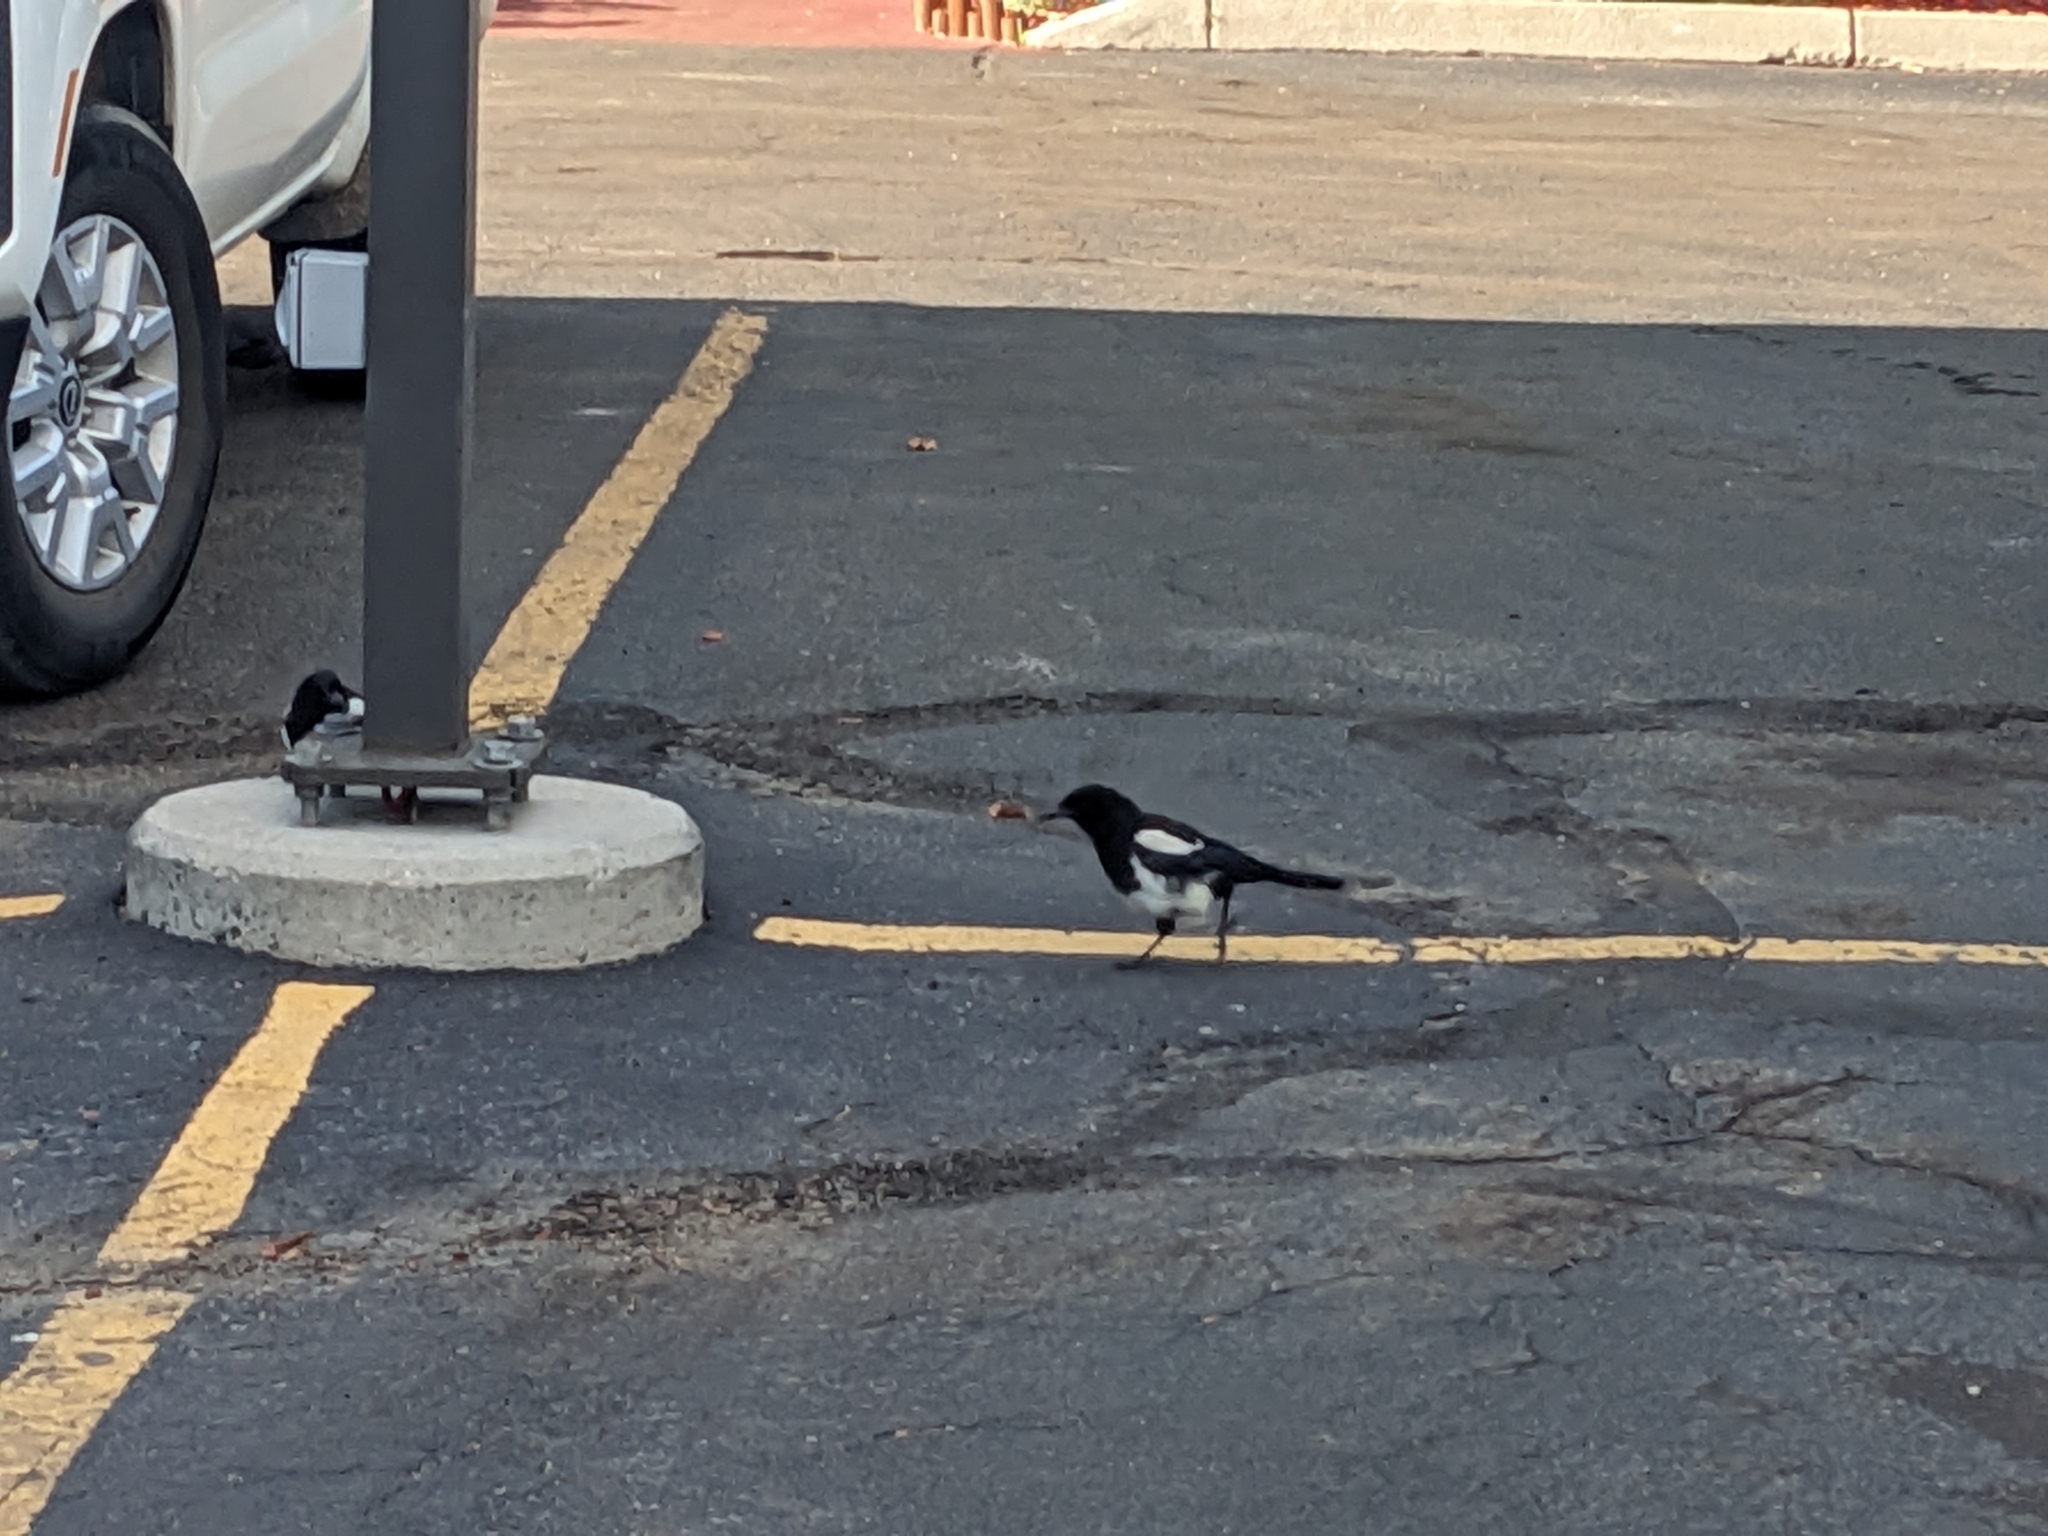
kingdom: Animalia
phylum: Chordata
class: Aves
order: Passeriformes
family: Corvidae
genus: Pica
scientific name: Pica hudsonia
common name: Black-billed magpie
